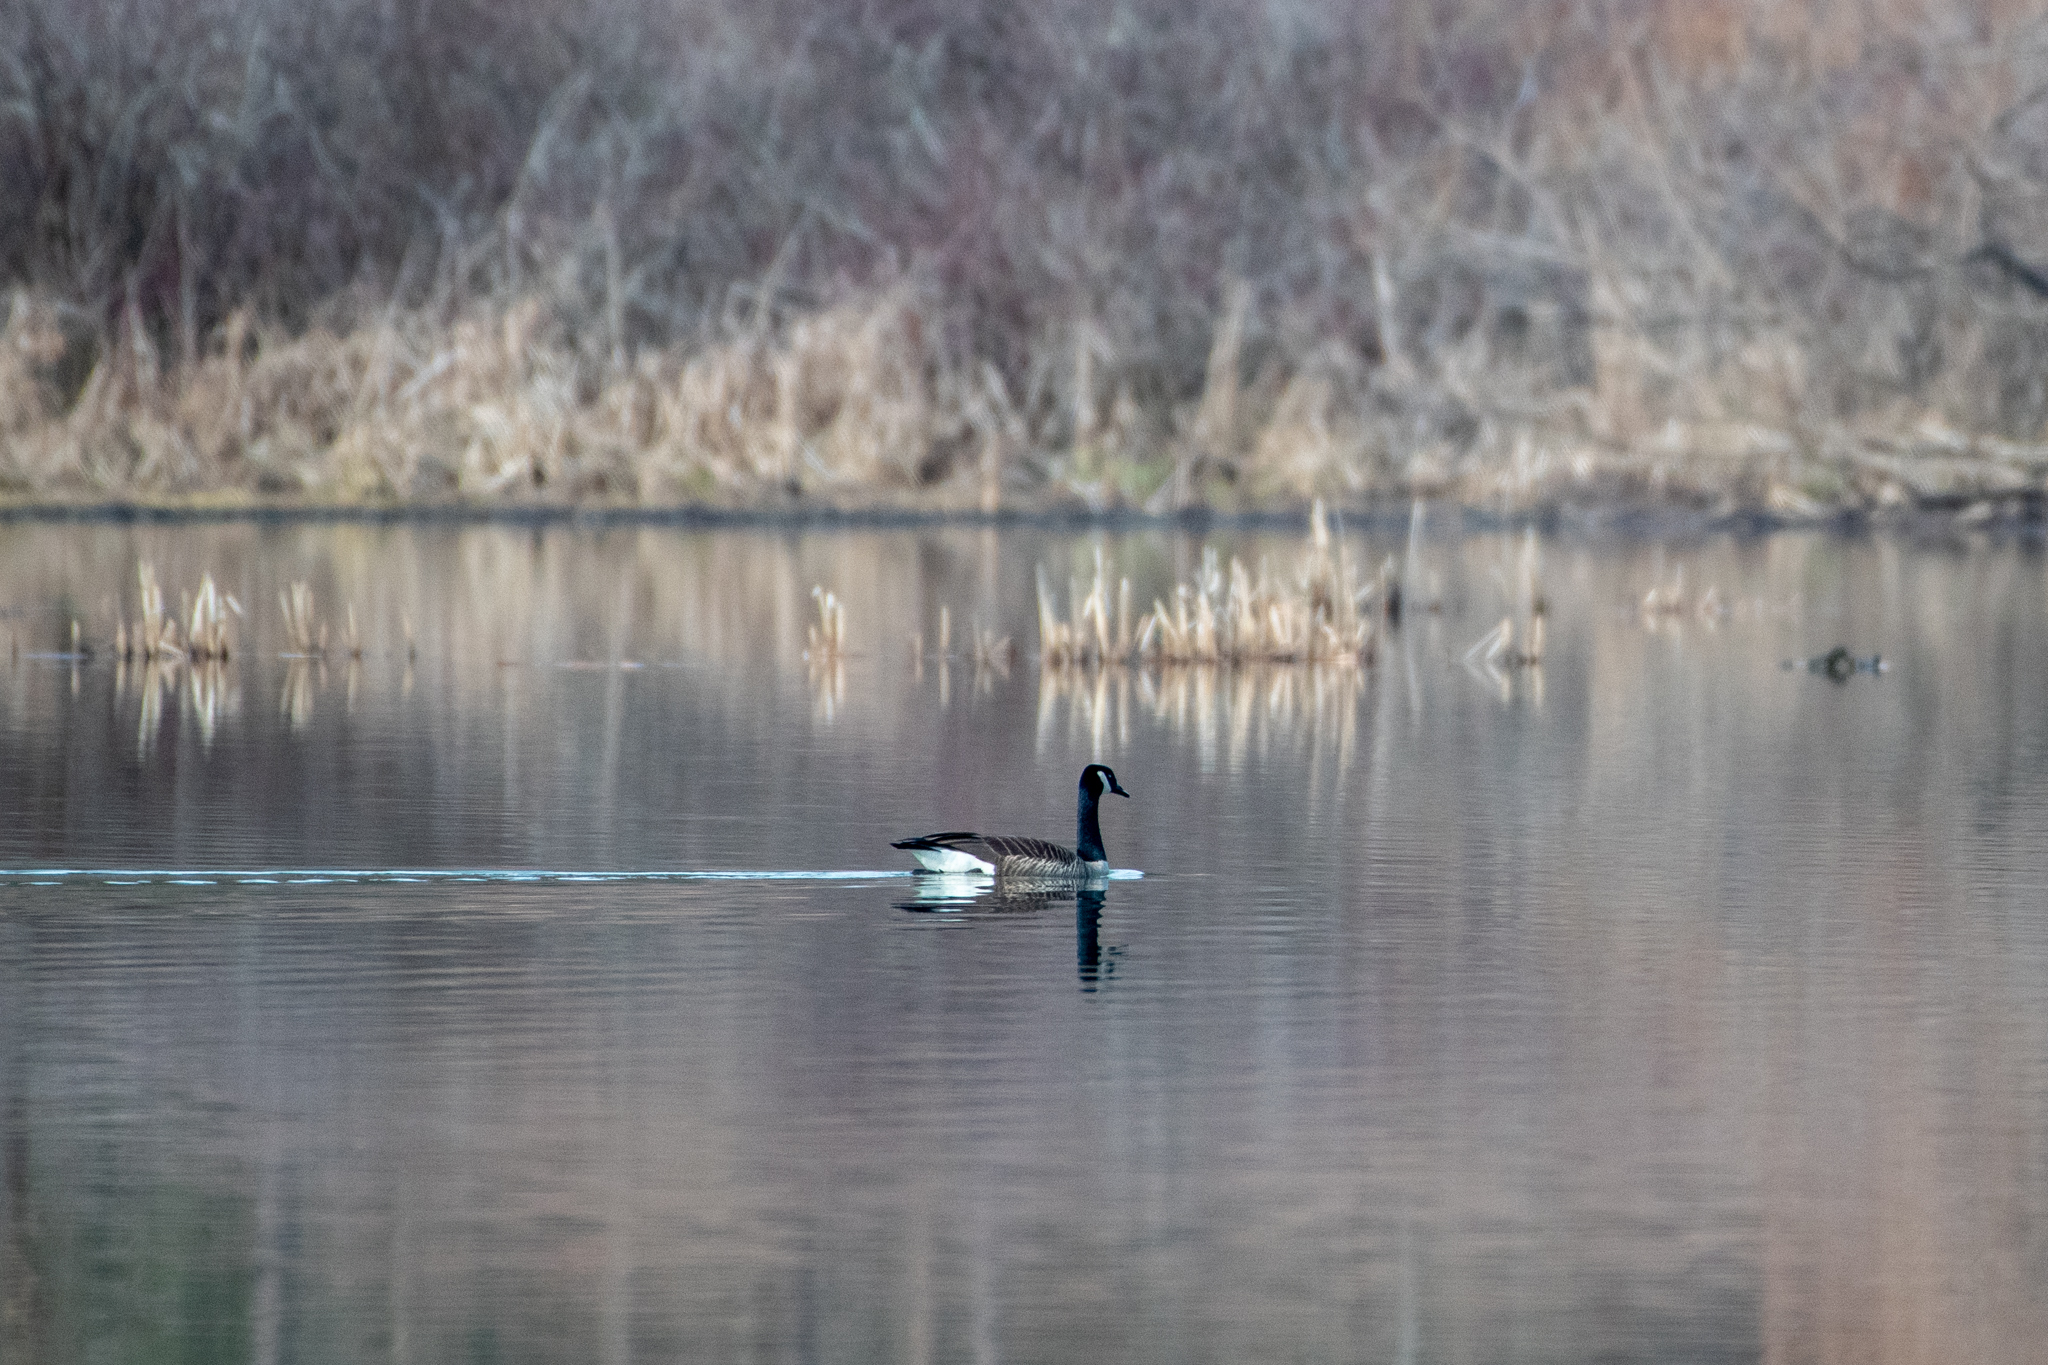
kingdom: Animalia
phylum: Chordata
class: Aves
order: Anseriformes
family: Anatidae
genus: Branta
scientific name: Branta canadensis
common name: Canada goose
